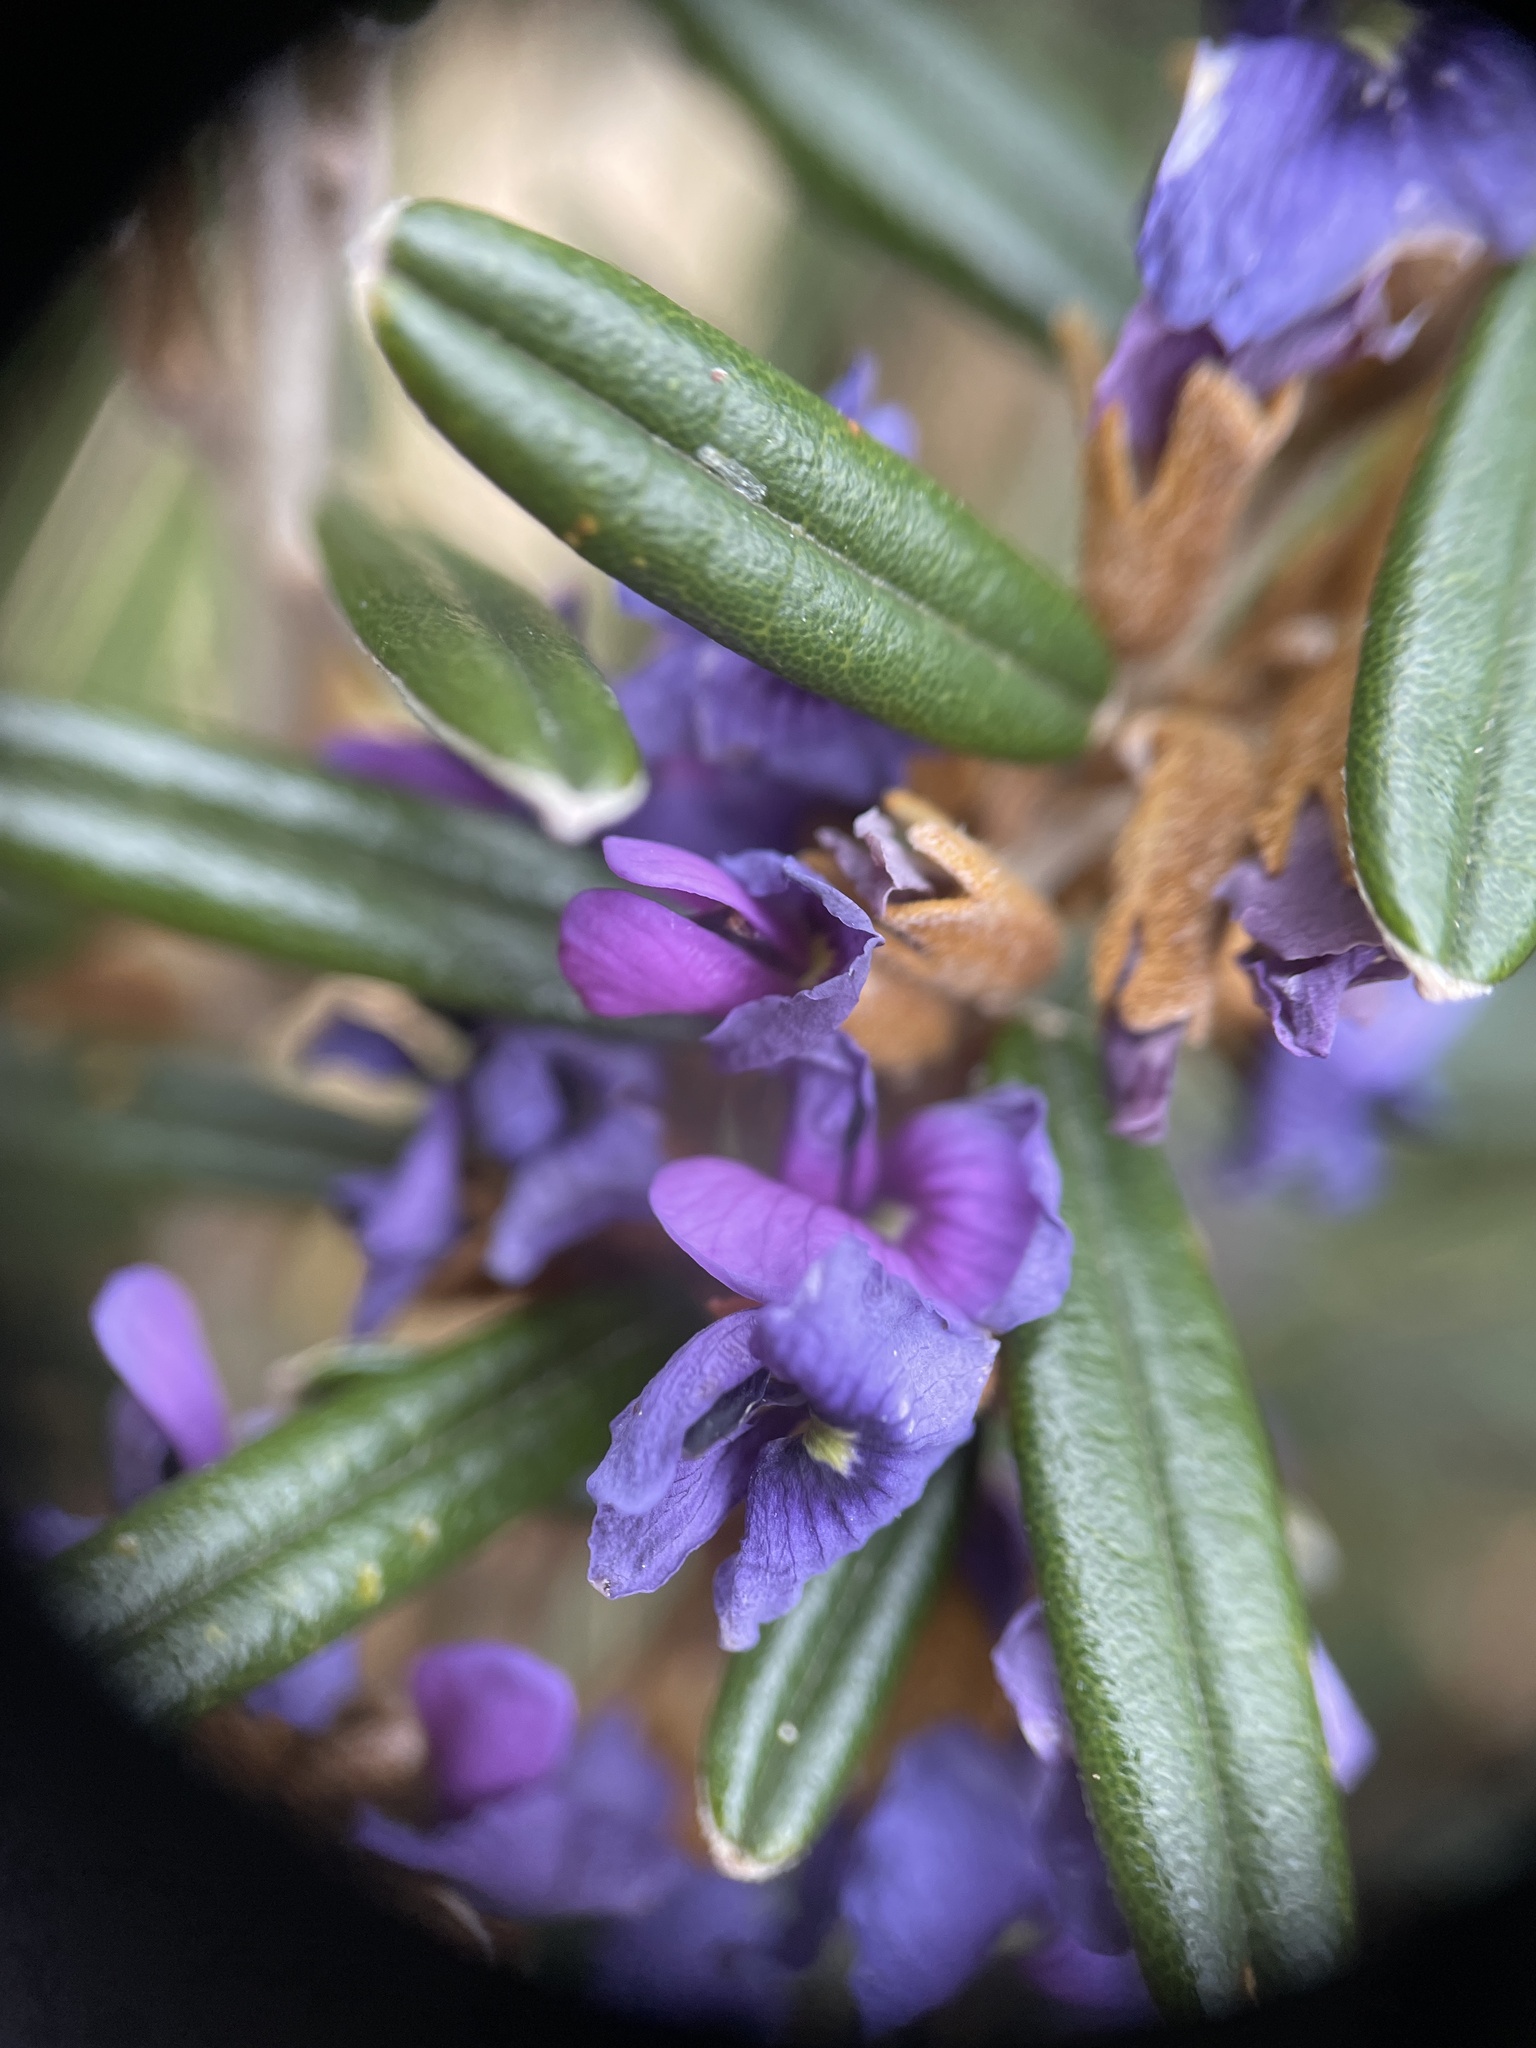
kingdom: Plantae
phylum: Tracheophyta
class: Magnoliopsida
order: Fabales
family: Fabaceae
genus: Hovea
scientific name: Hovea montana
